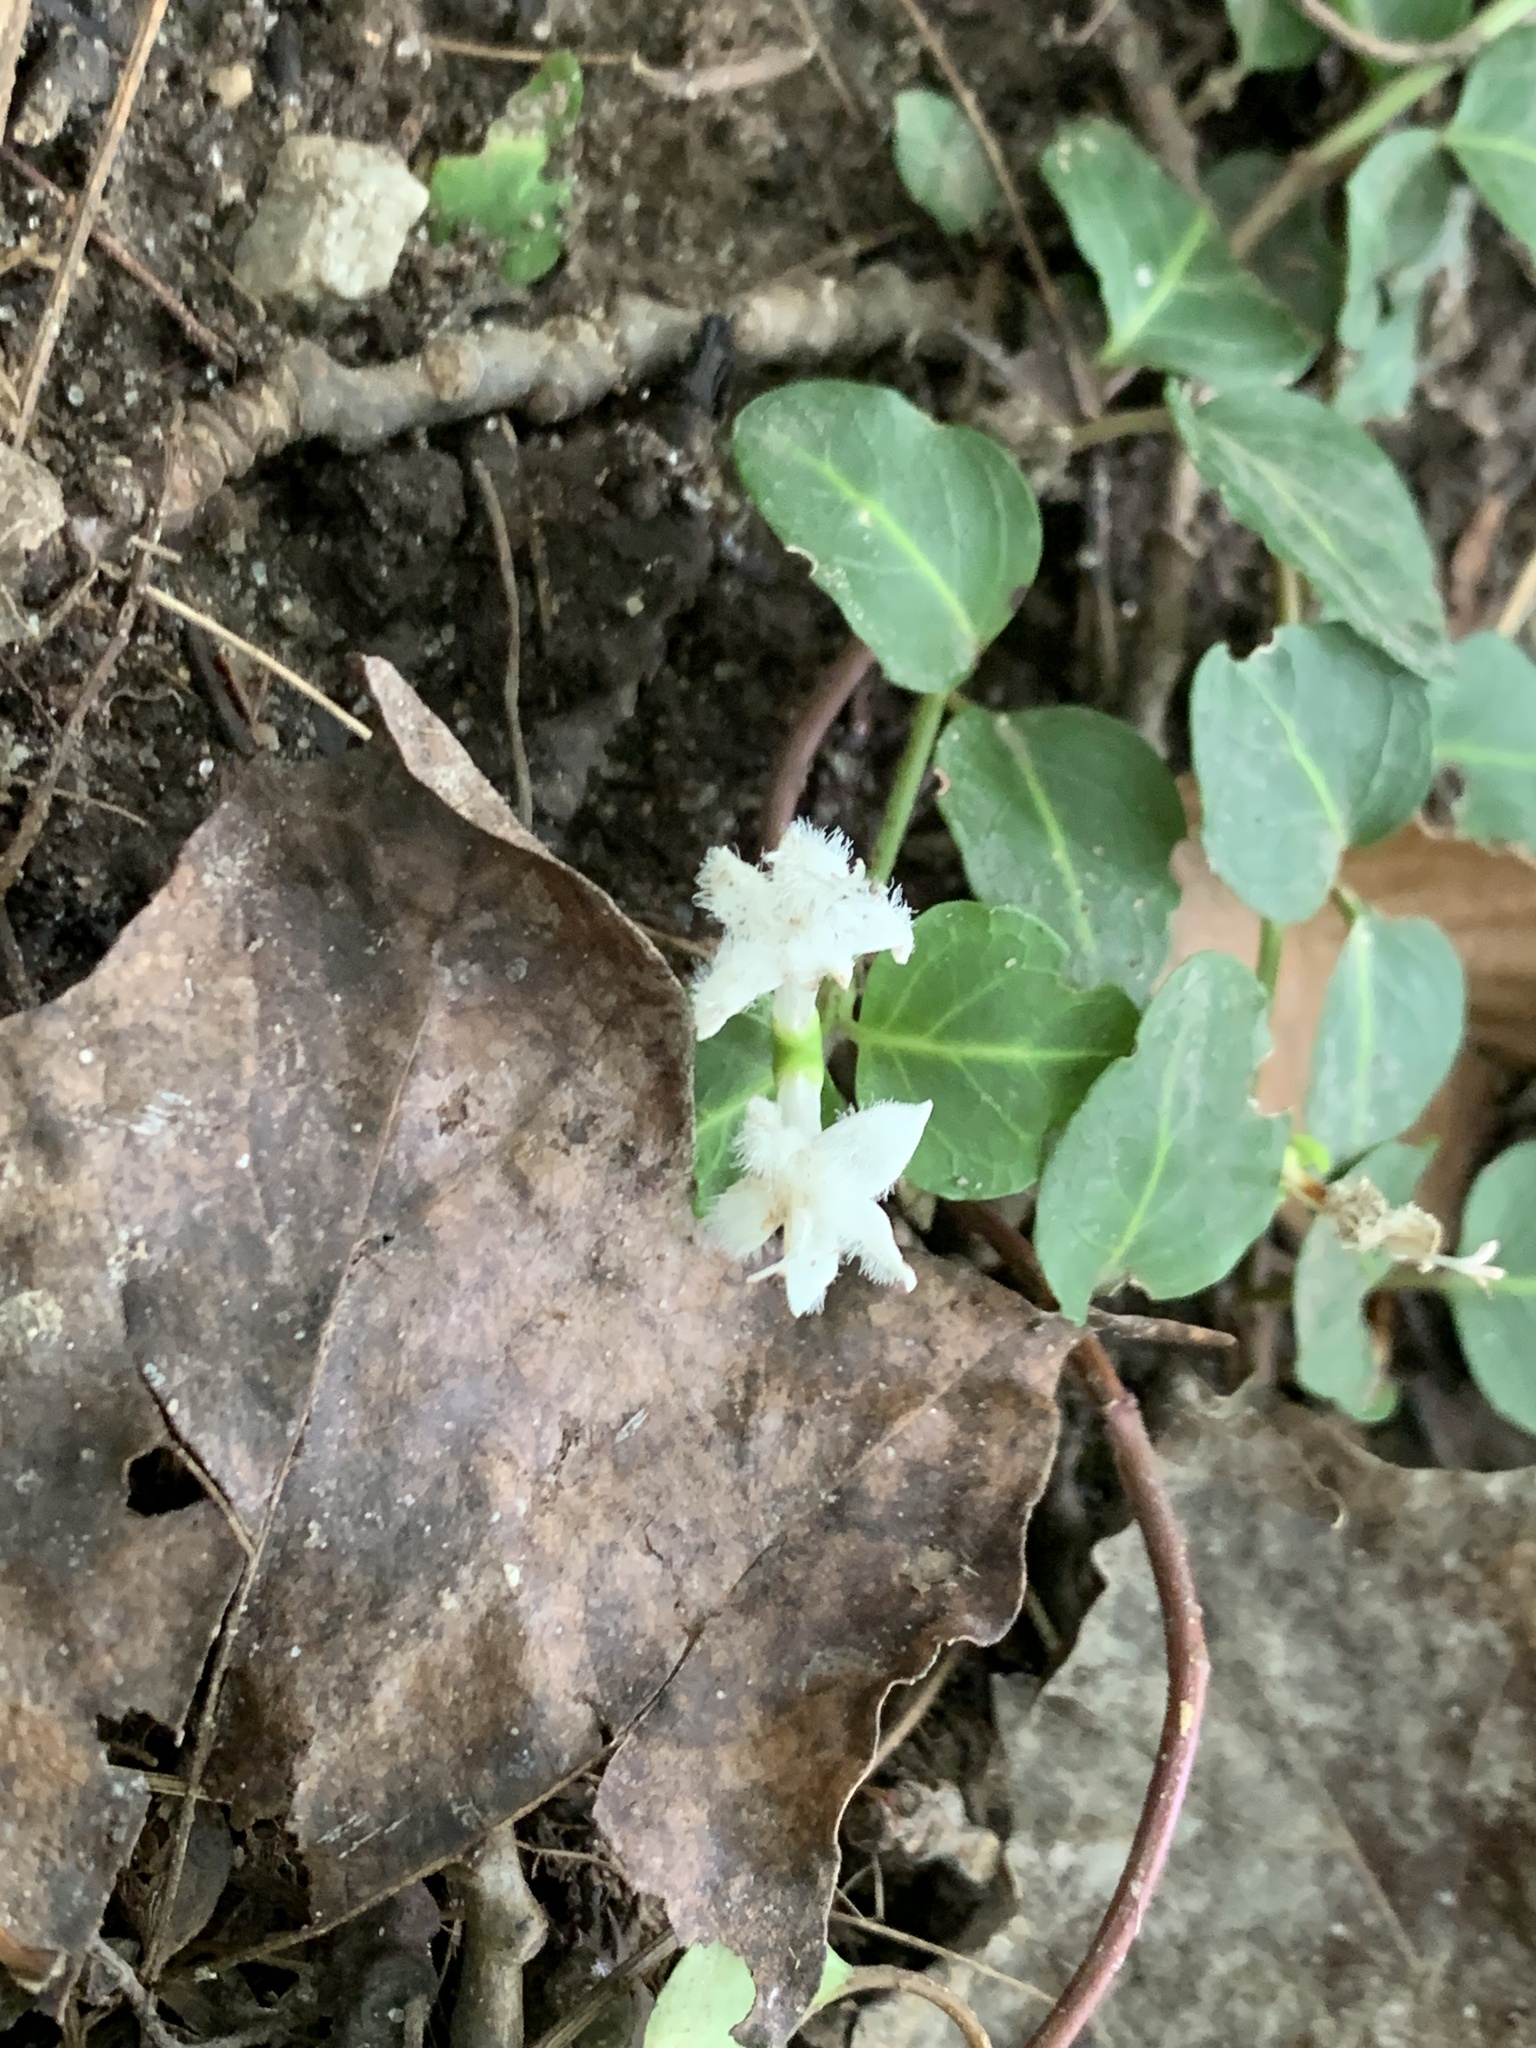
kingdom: Plantae
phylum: Tracheophyta
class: Magnoliopsida
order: Gentianales
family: Rubiaceae
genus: Mitchella
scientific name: Mitchella repens
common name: Partridge-berry
